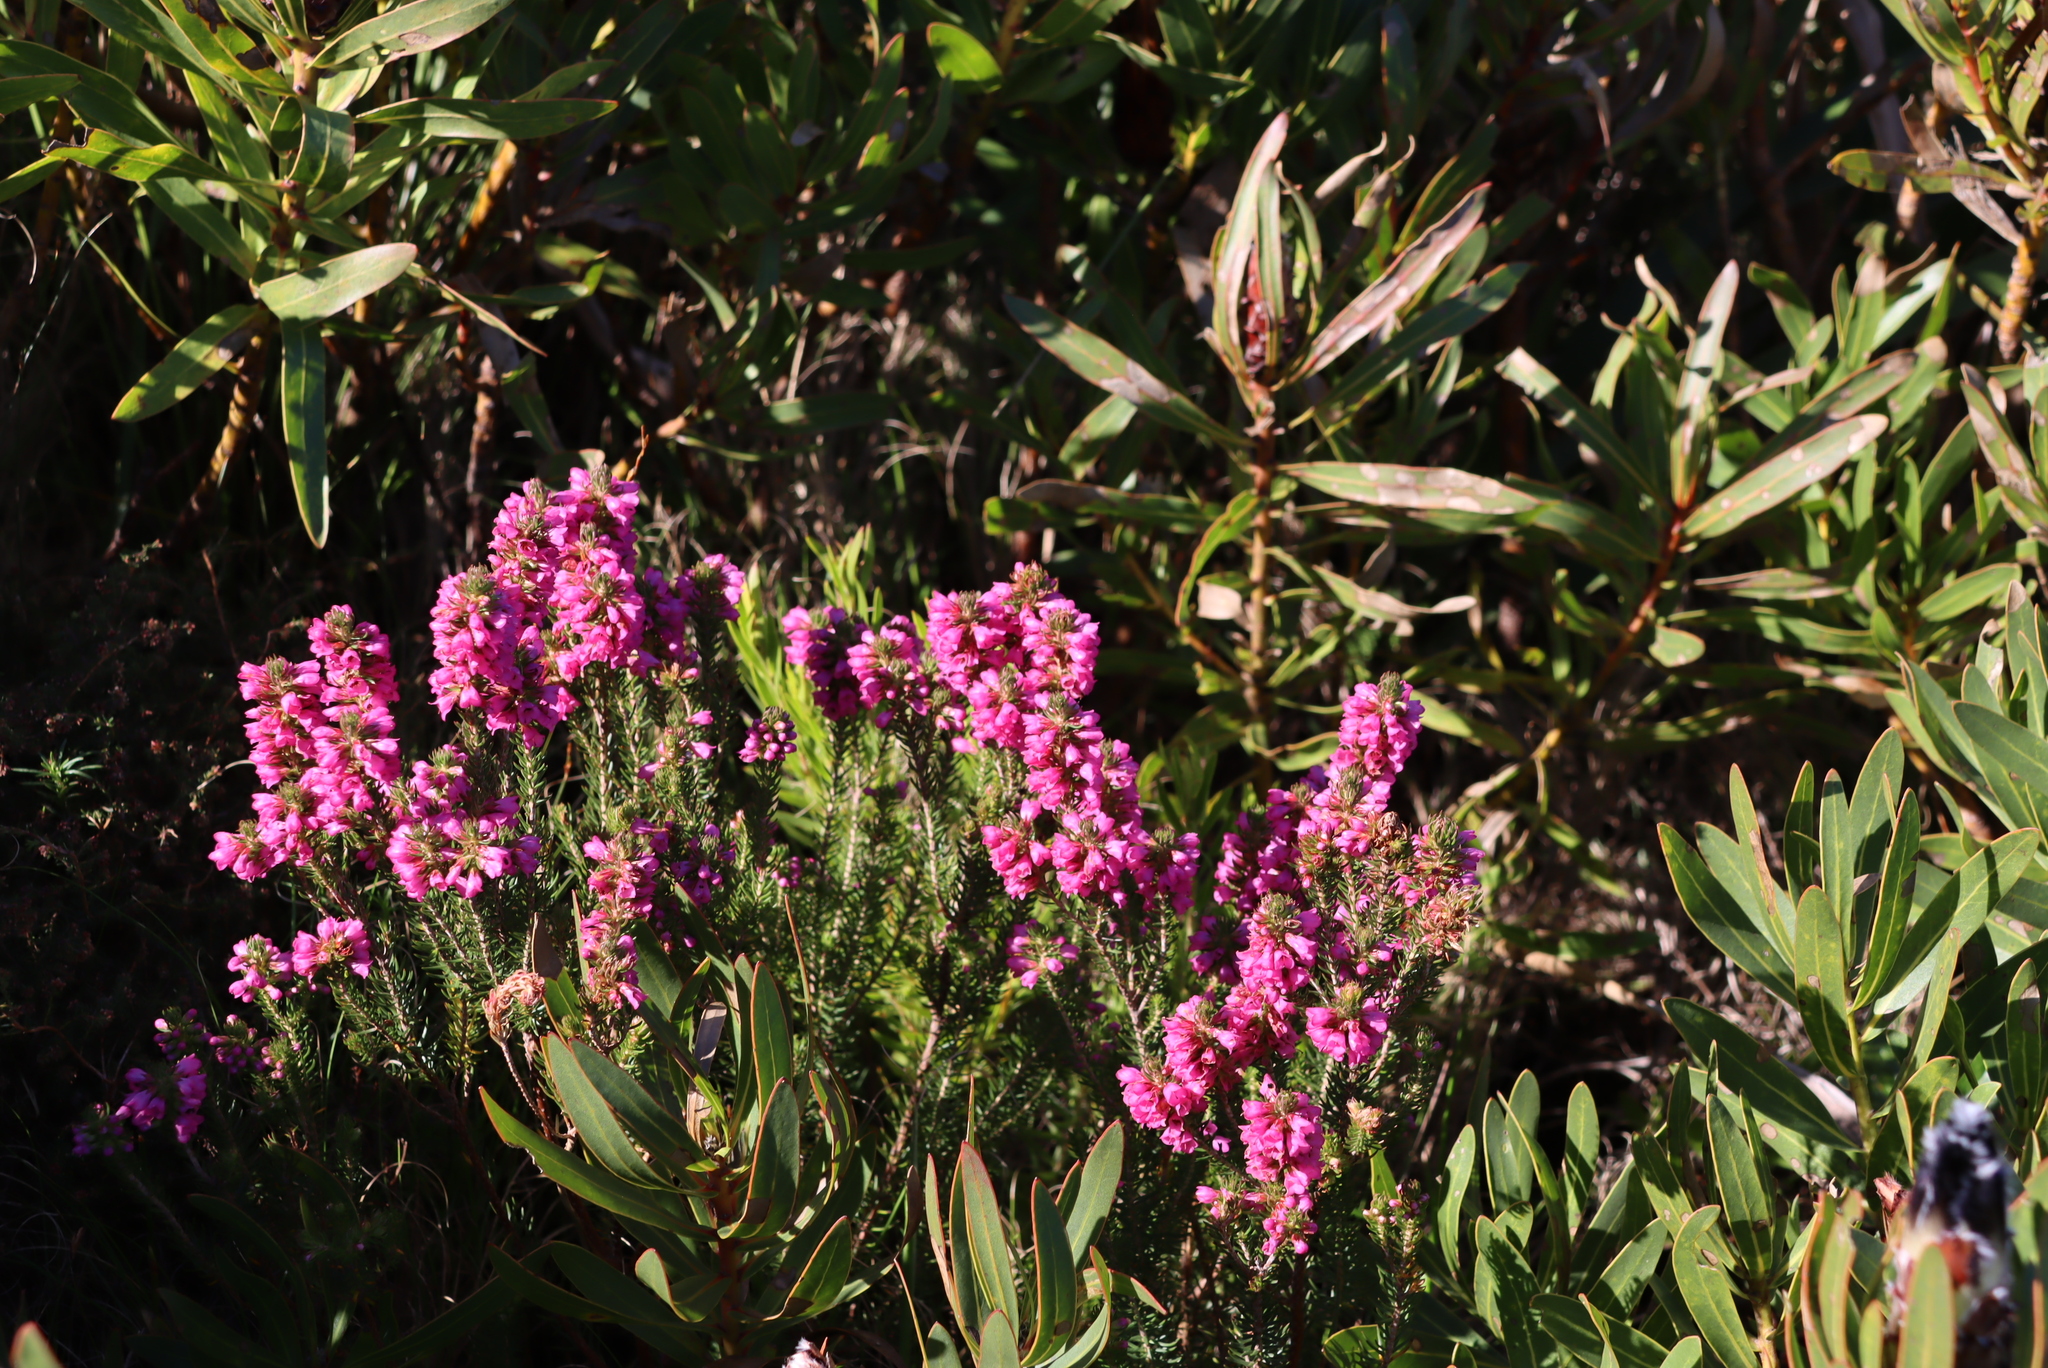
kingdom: Plantae
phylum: Tracheophyta
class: Magnoliopsida
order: Ericales
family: Ericaceae
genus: Erica
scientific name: Erica abietina
